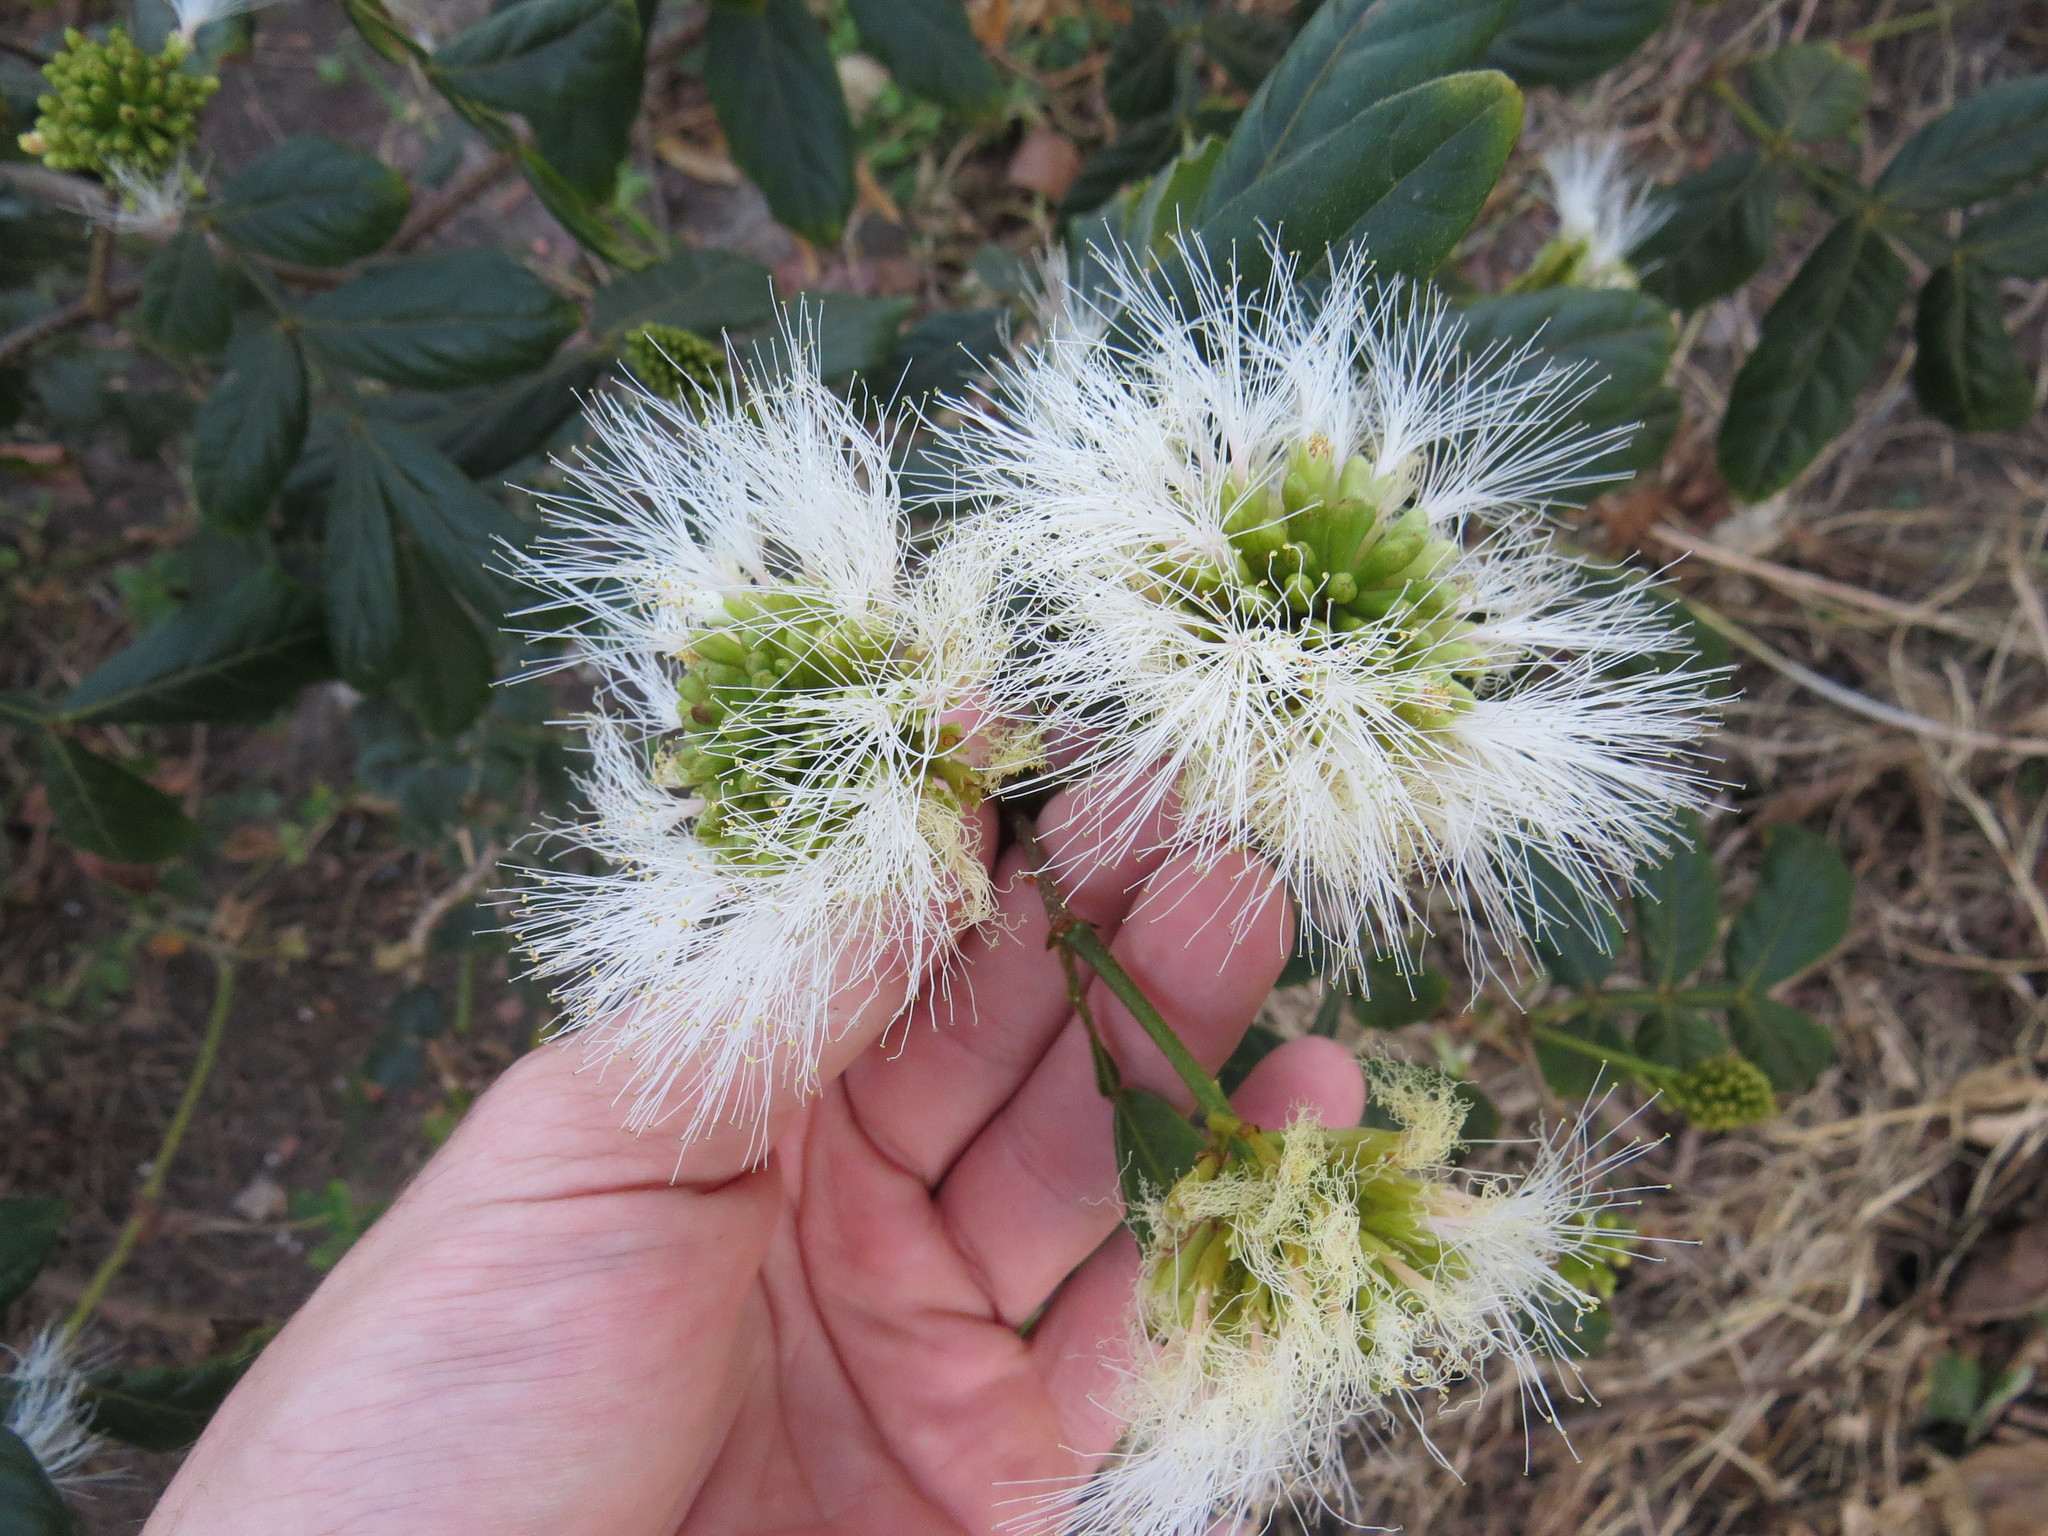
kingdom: Plantae
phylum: Tracheophyta
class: Magnoliopsida
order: Fabales
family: Fabaceae
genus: Inga
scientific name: Inga maritima
